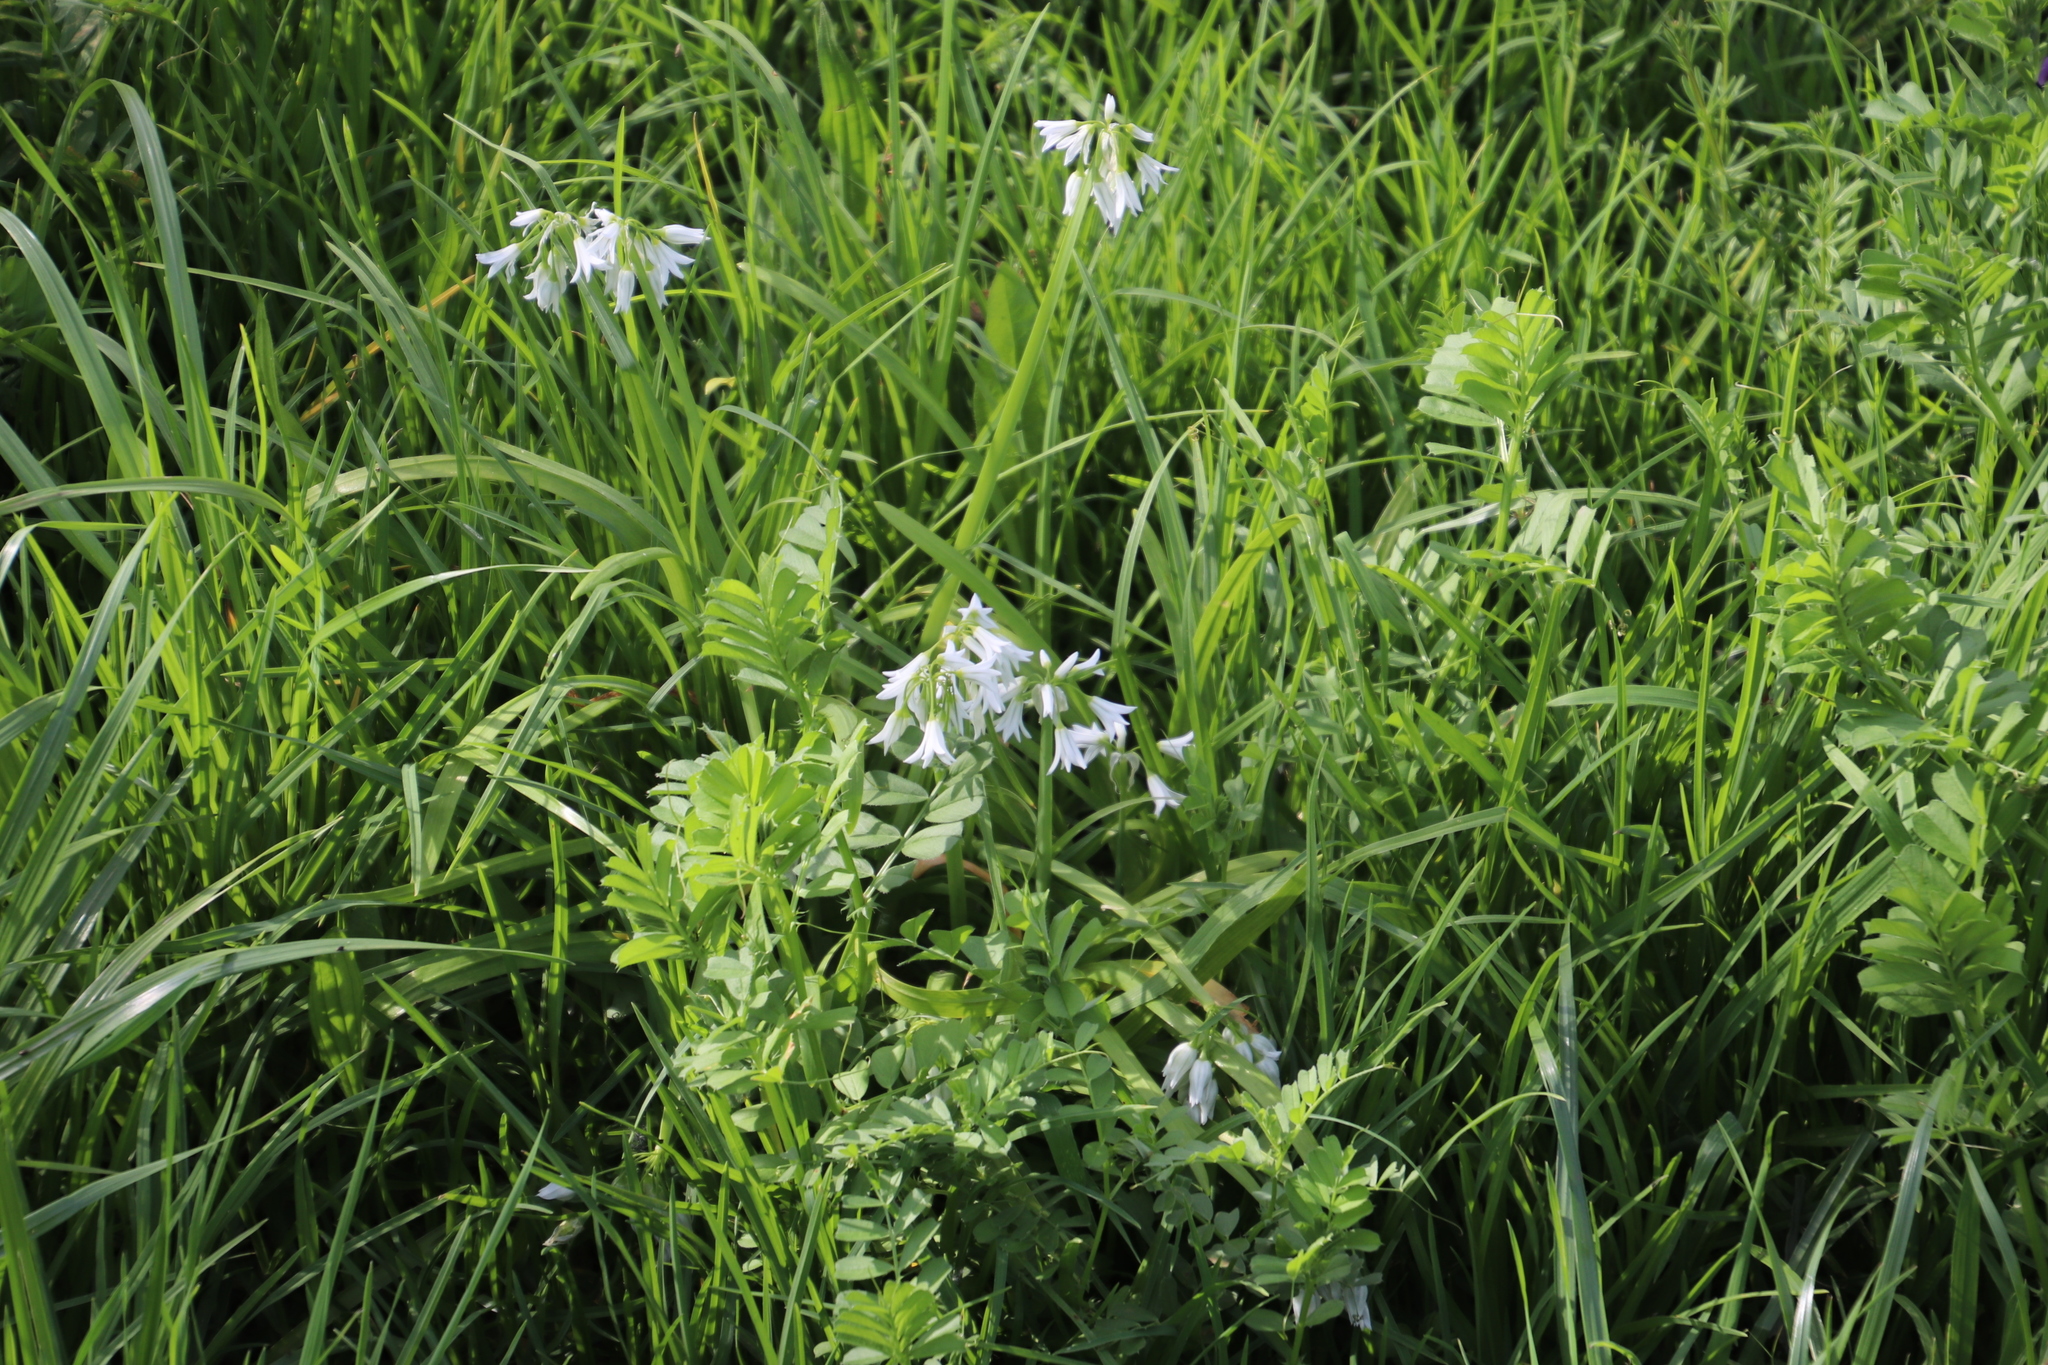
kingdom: Plantae
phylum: Tracheophyta
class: Liliopsida
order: Asparagales
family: Amaryllidaceae
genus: Allium
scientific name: Allium triquetrum
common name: Three-cornered garlic
